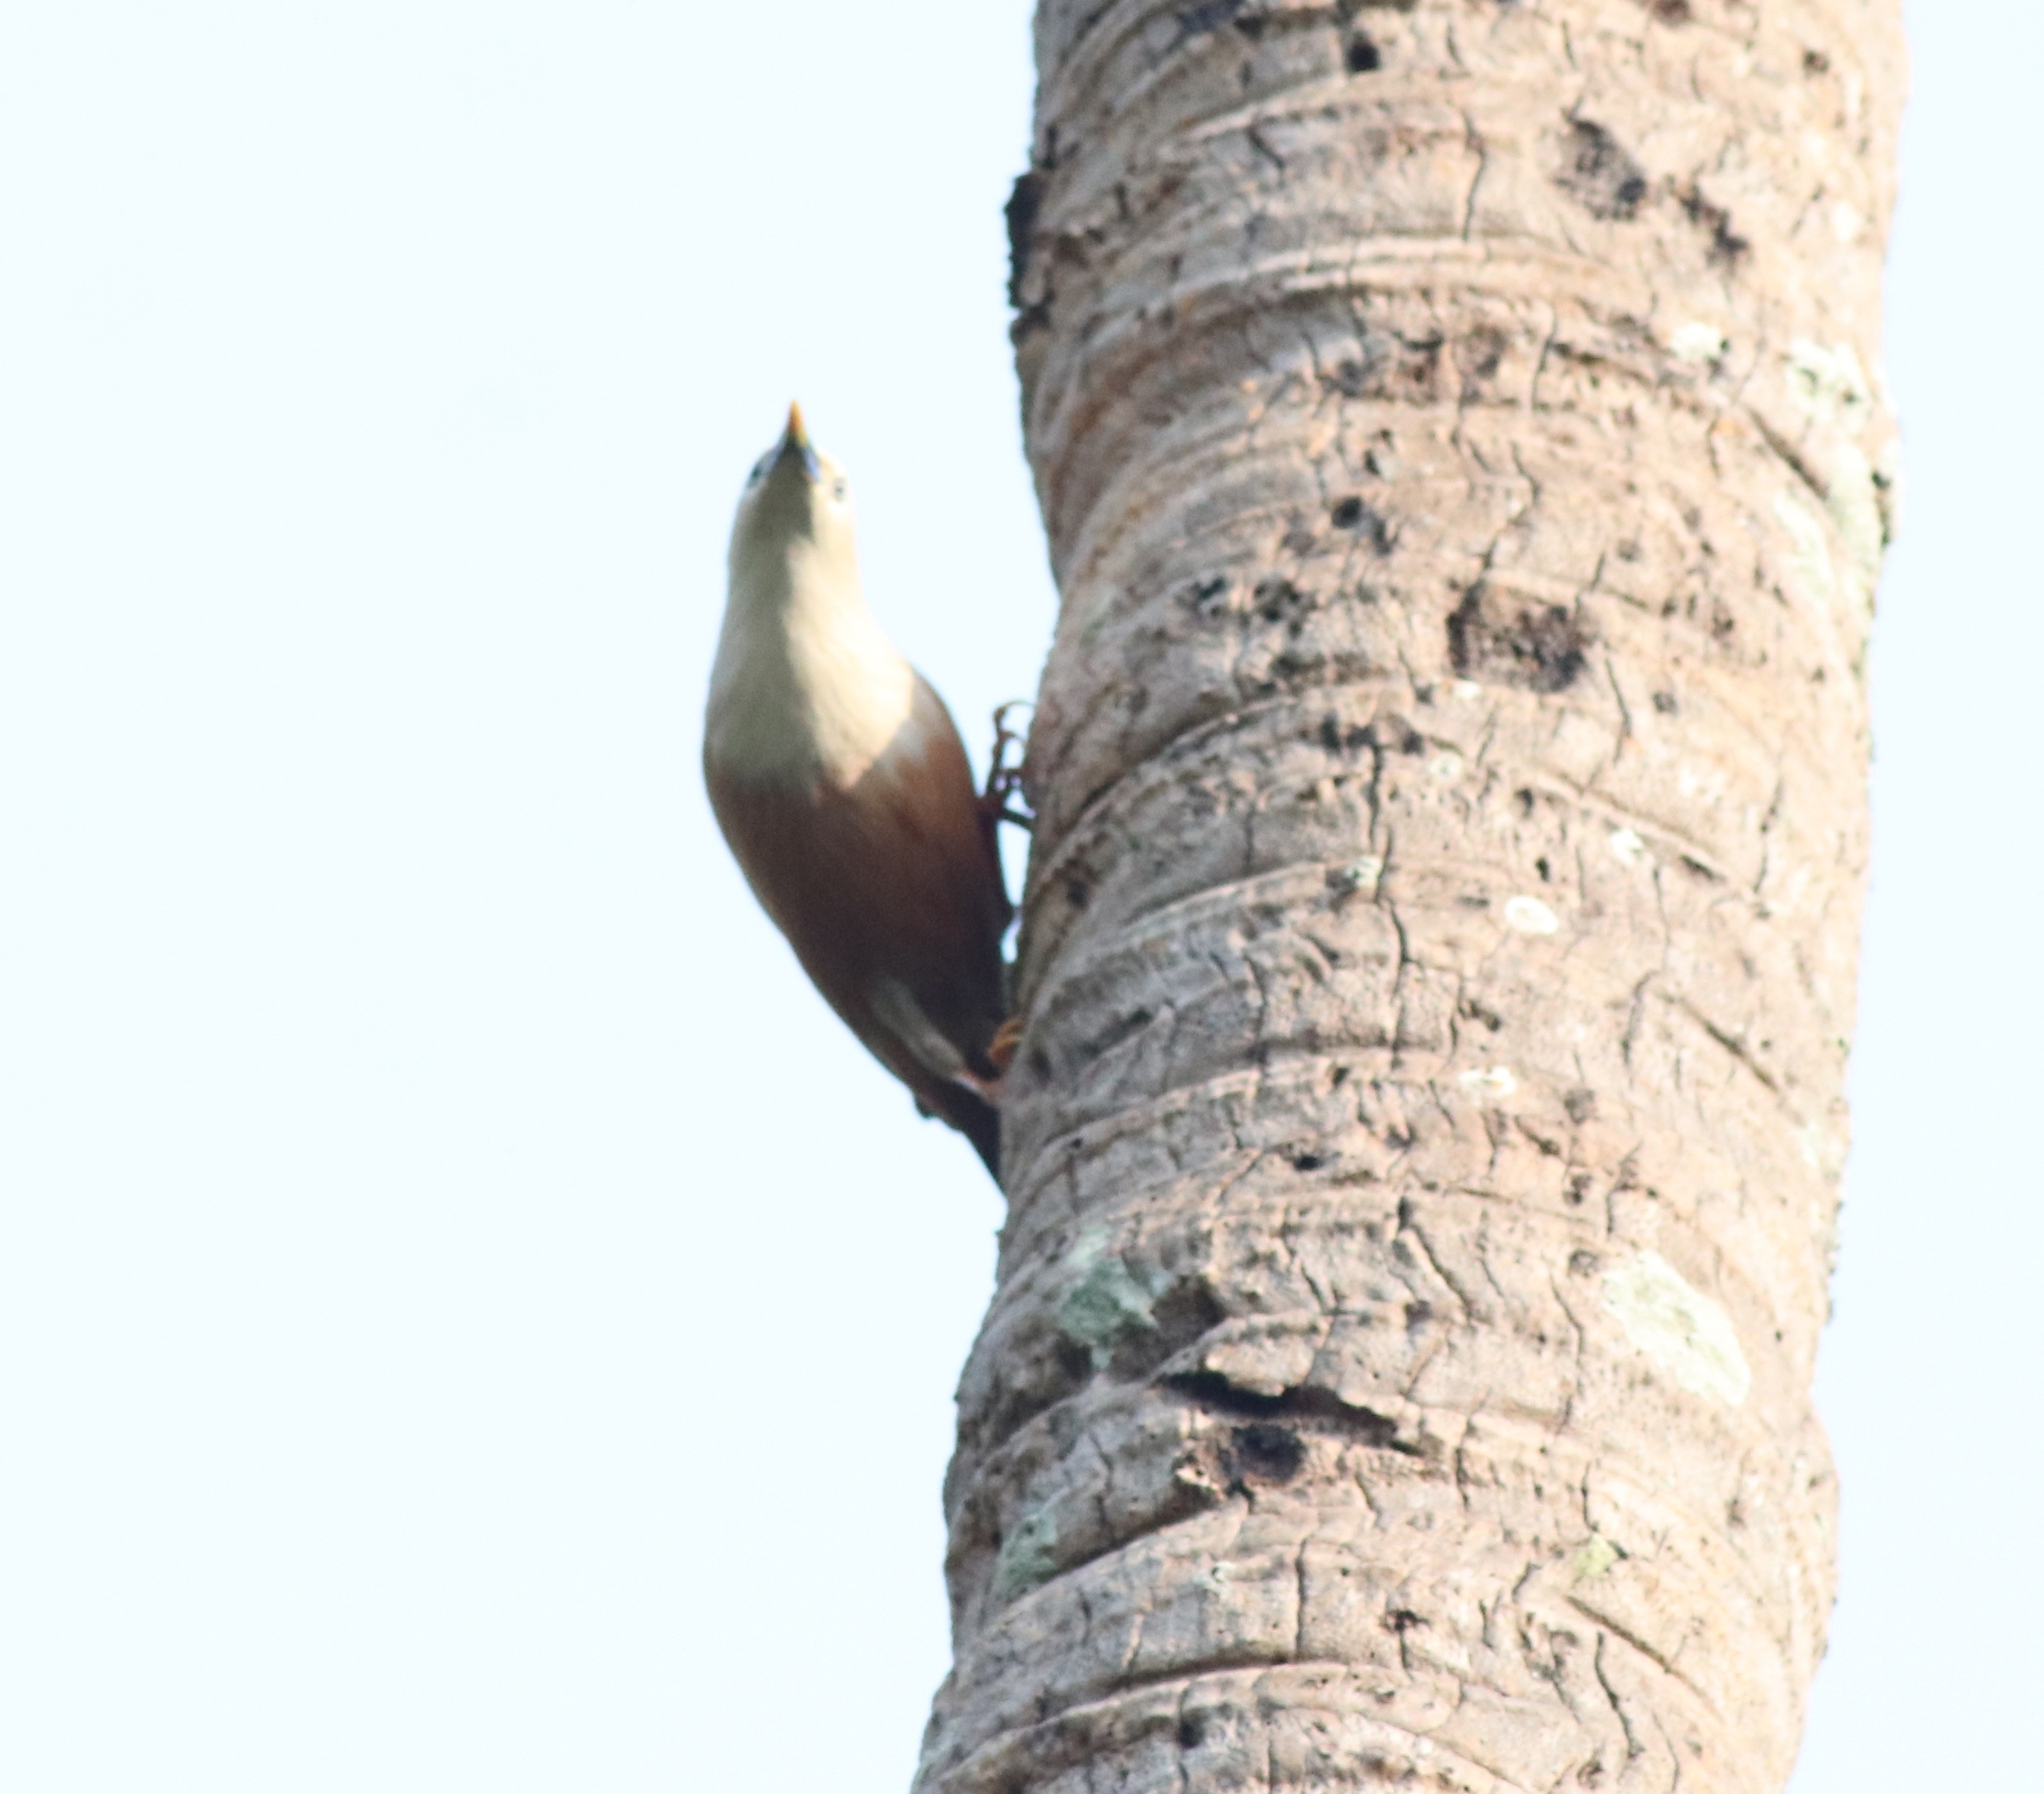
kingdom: Animalia
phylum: Chordata
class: Aves
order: Passeriformes
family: Sturnidae
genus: Sturnia
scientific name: Sturnia blythii
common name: Malabar starling
